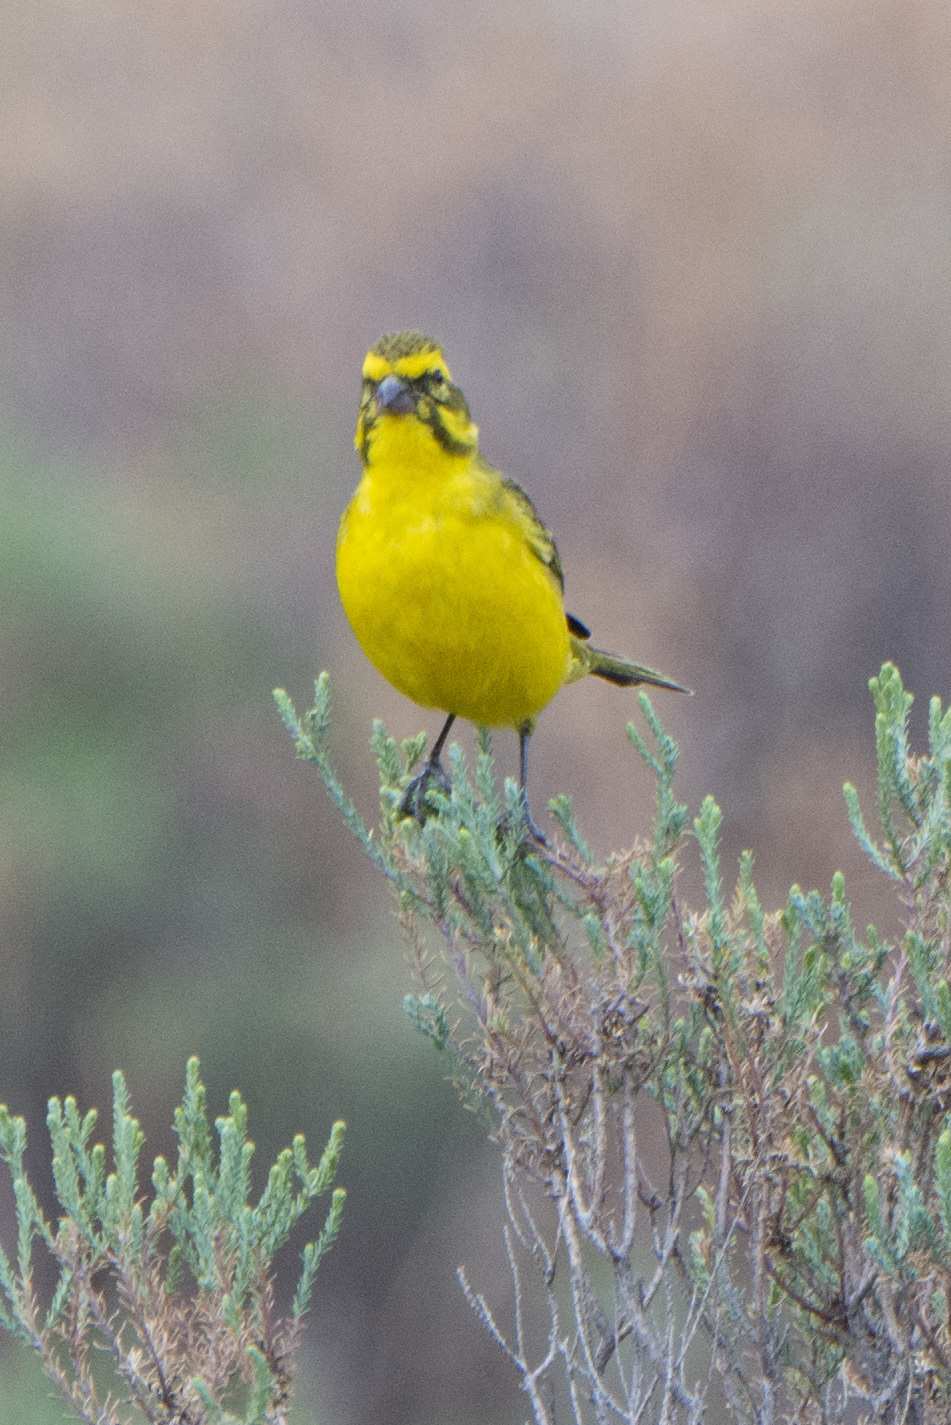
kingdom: Animalia
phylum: Chordata
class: Aves
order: Passeriformes
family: Fringillidae
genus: Crithagra
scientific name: Crithagra flaviventris
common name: Yellow canary
